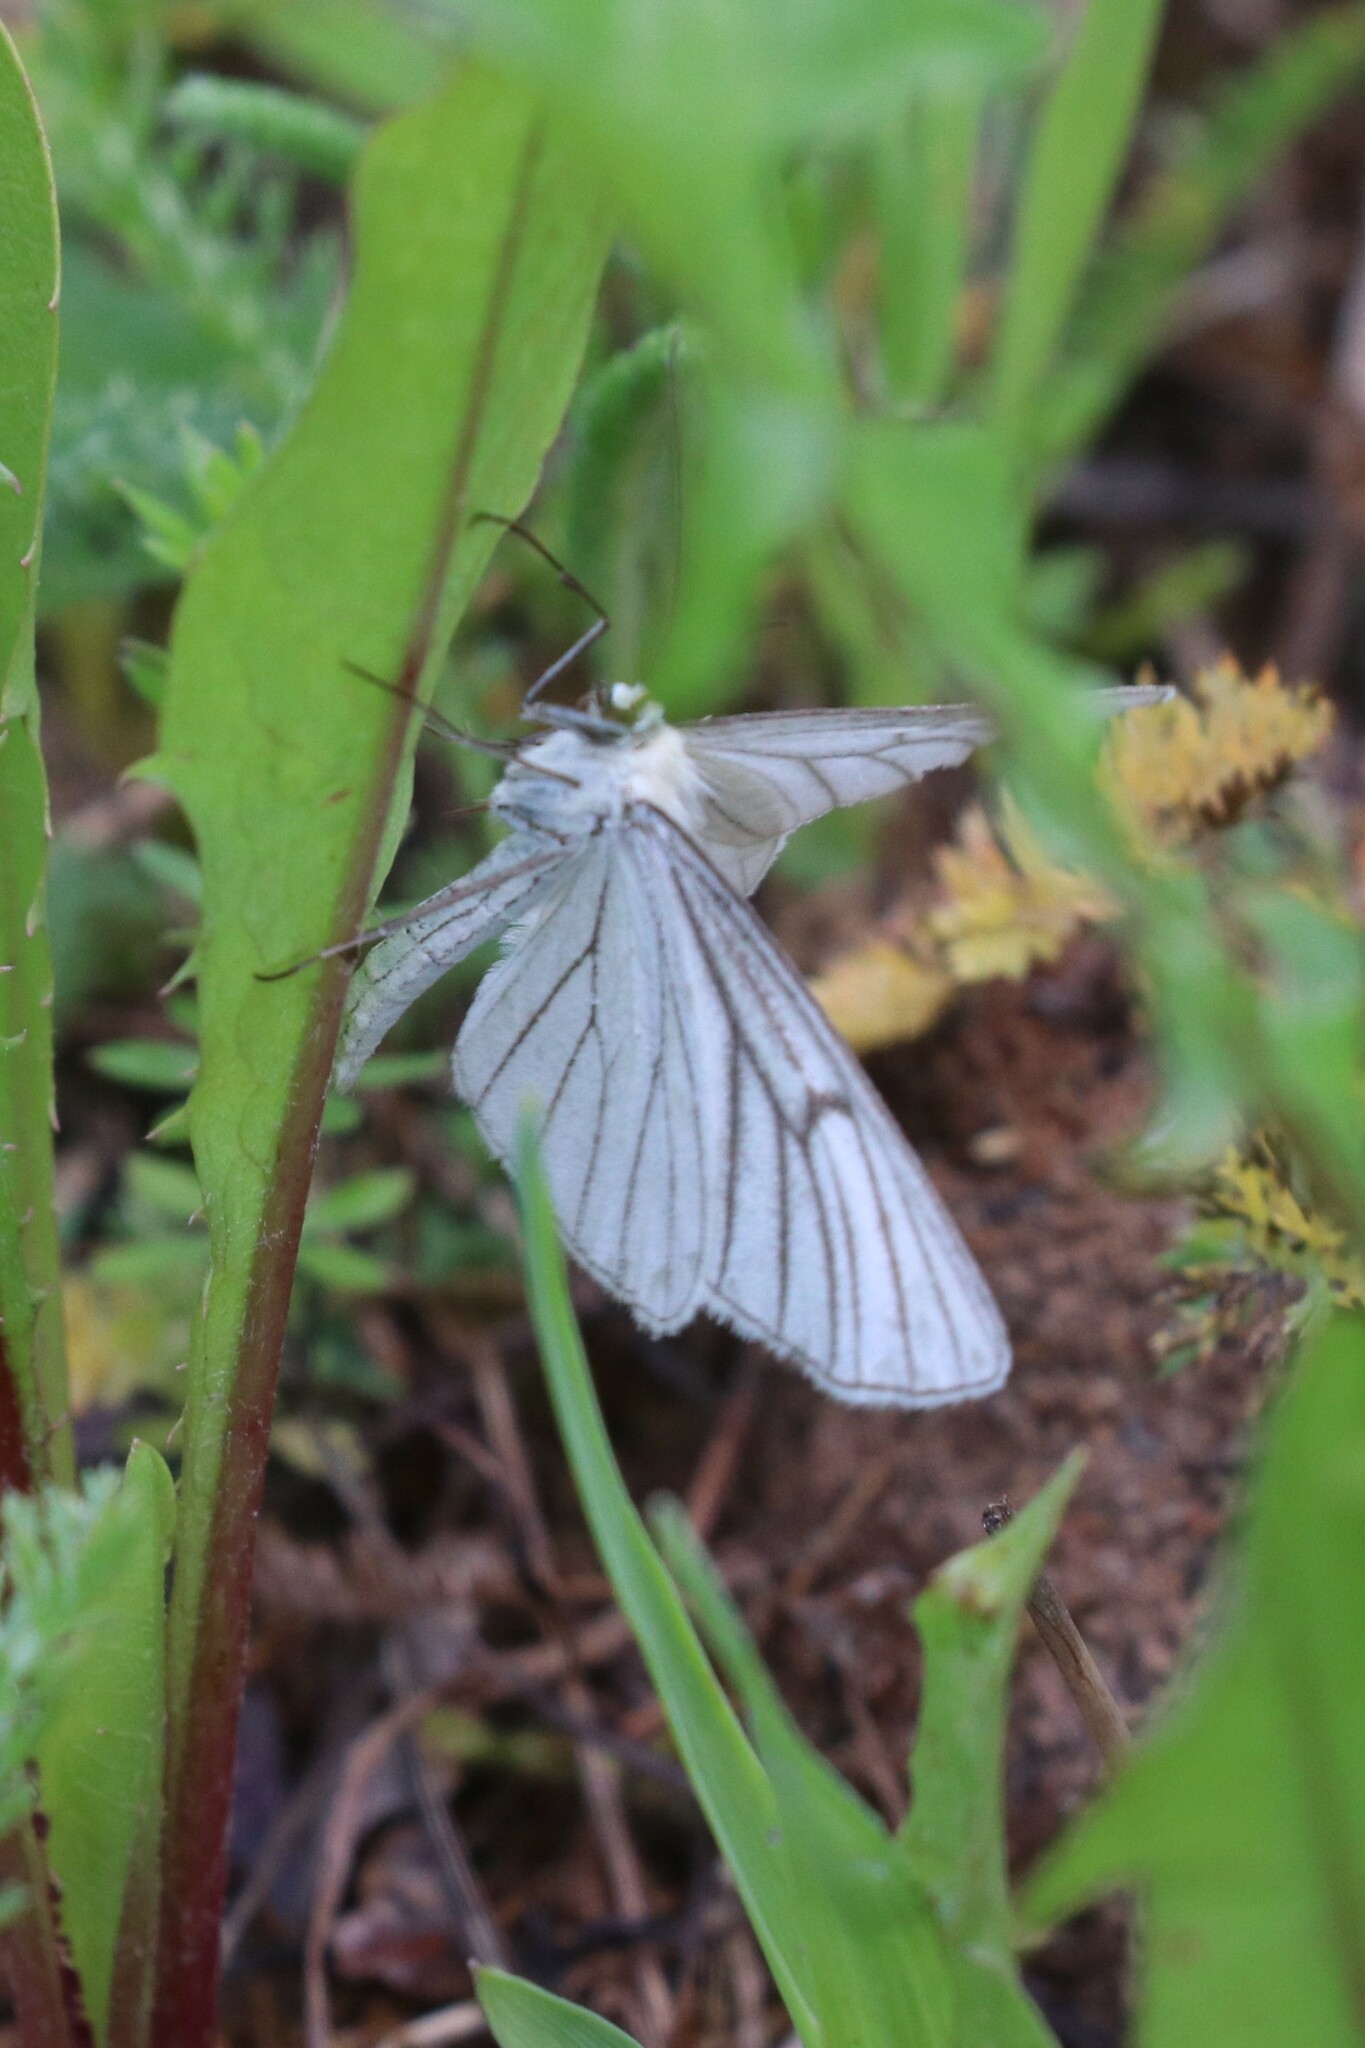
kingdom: Animalia
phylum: Arthropoda
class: Insecta
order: Lepidoptera
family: Geometridae
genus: Siona
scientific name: Siona lineata
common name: Black-veined moth
